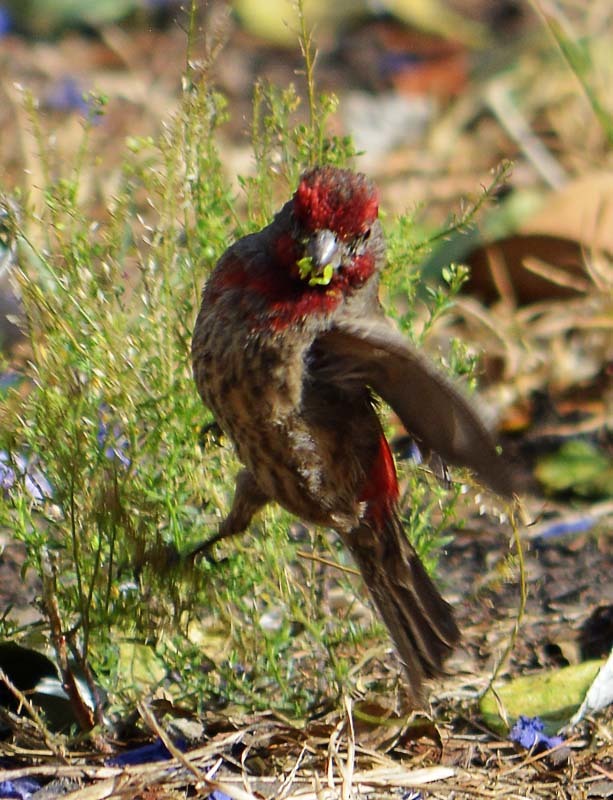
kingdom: Animalia
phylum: Chordata
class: Aves
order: Passeriformes
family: Fringillidae
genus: Haemorhous
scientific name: Haemorhous mexicanus
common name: House finch
